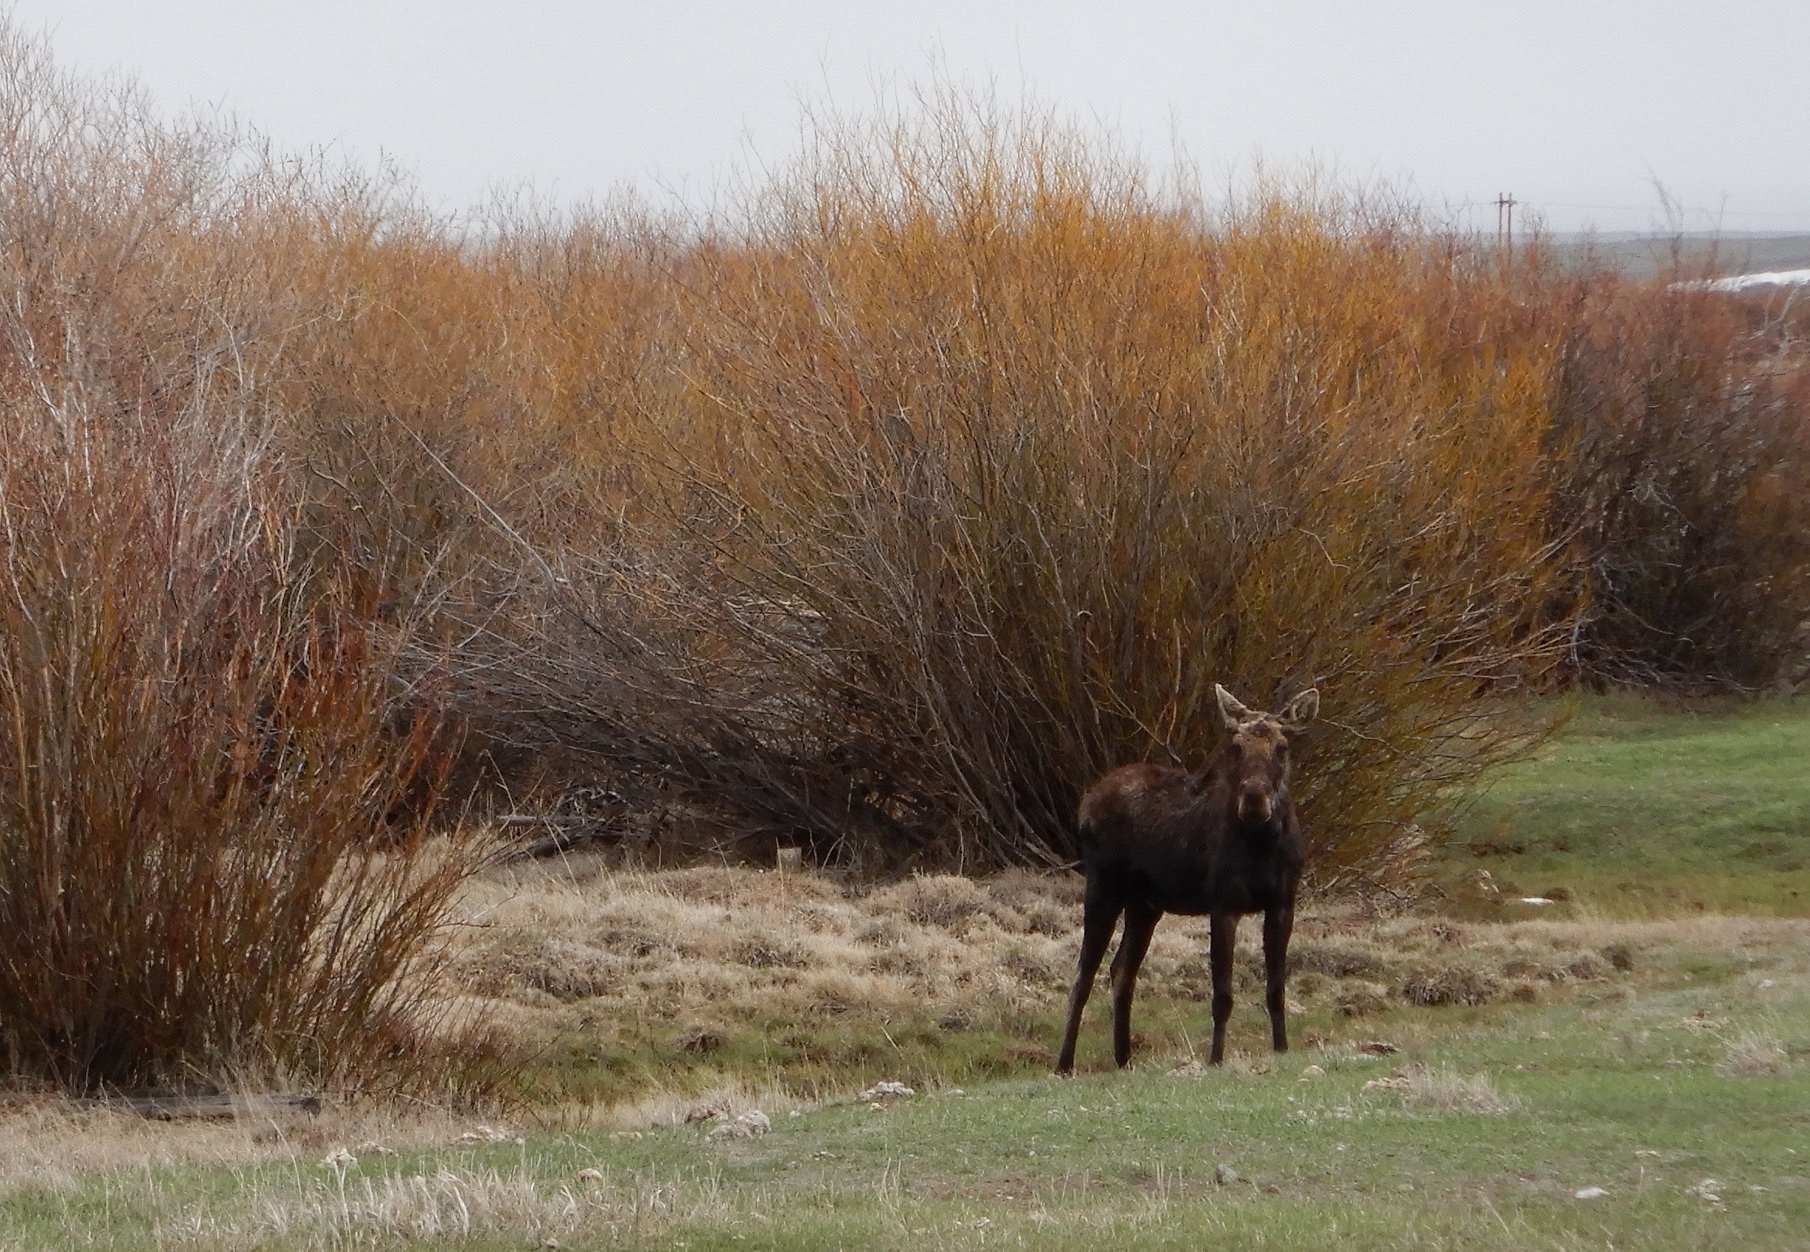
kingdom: Animalia
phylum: Chordata
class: Mammalia
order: Artiodactyla
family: Cervidae
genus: Alces
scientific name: Alces alces
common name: Moose
